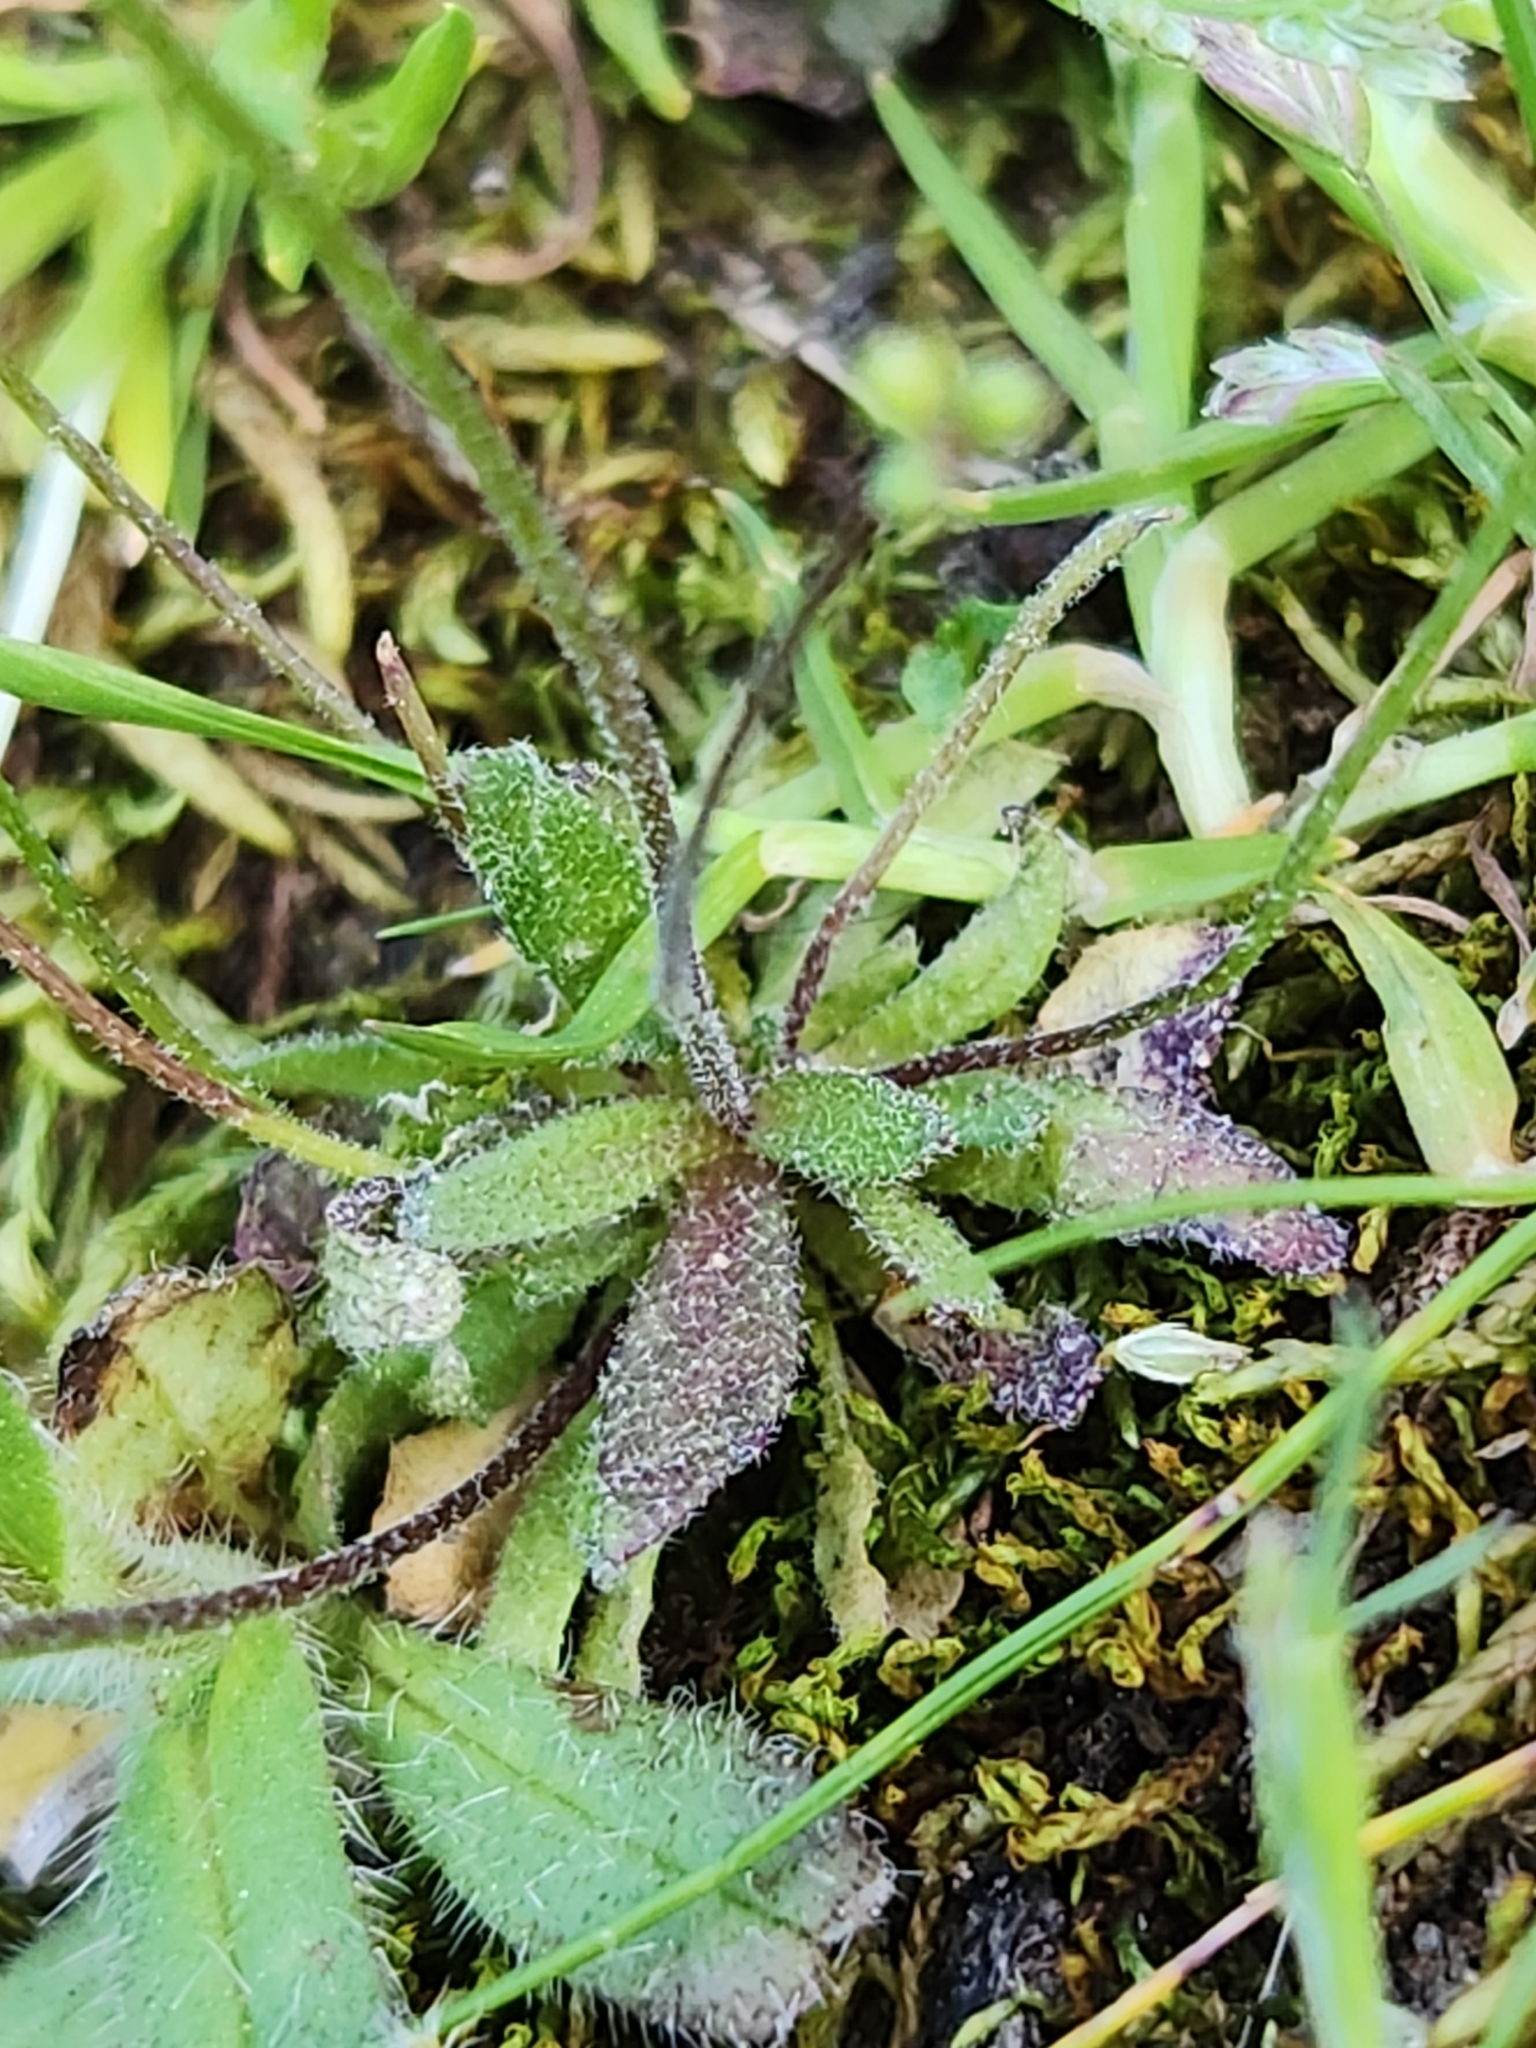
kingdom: Plantae
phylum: Tracheophyta
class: Magnoliopsida
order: Brassicales
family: Brassicaceae
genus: Draba
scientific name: Draba verna
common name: Spring draba
